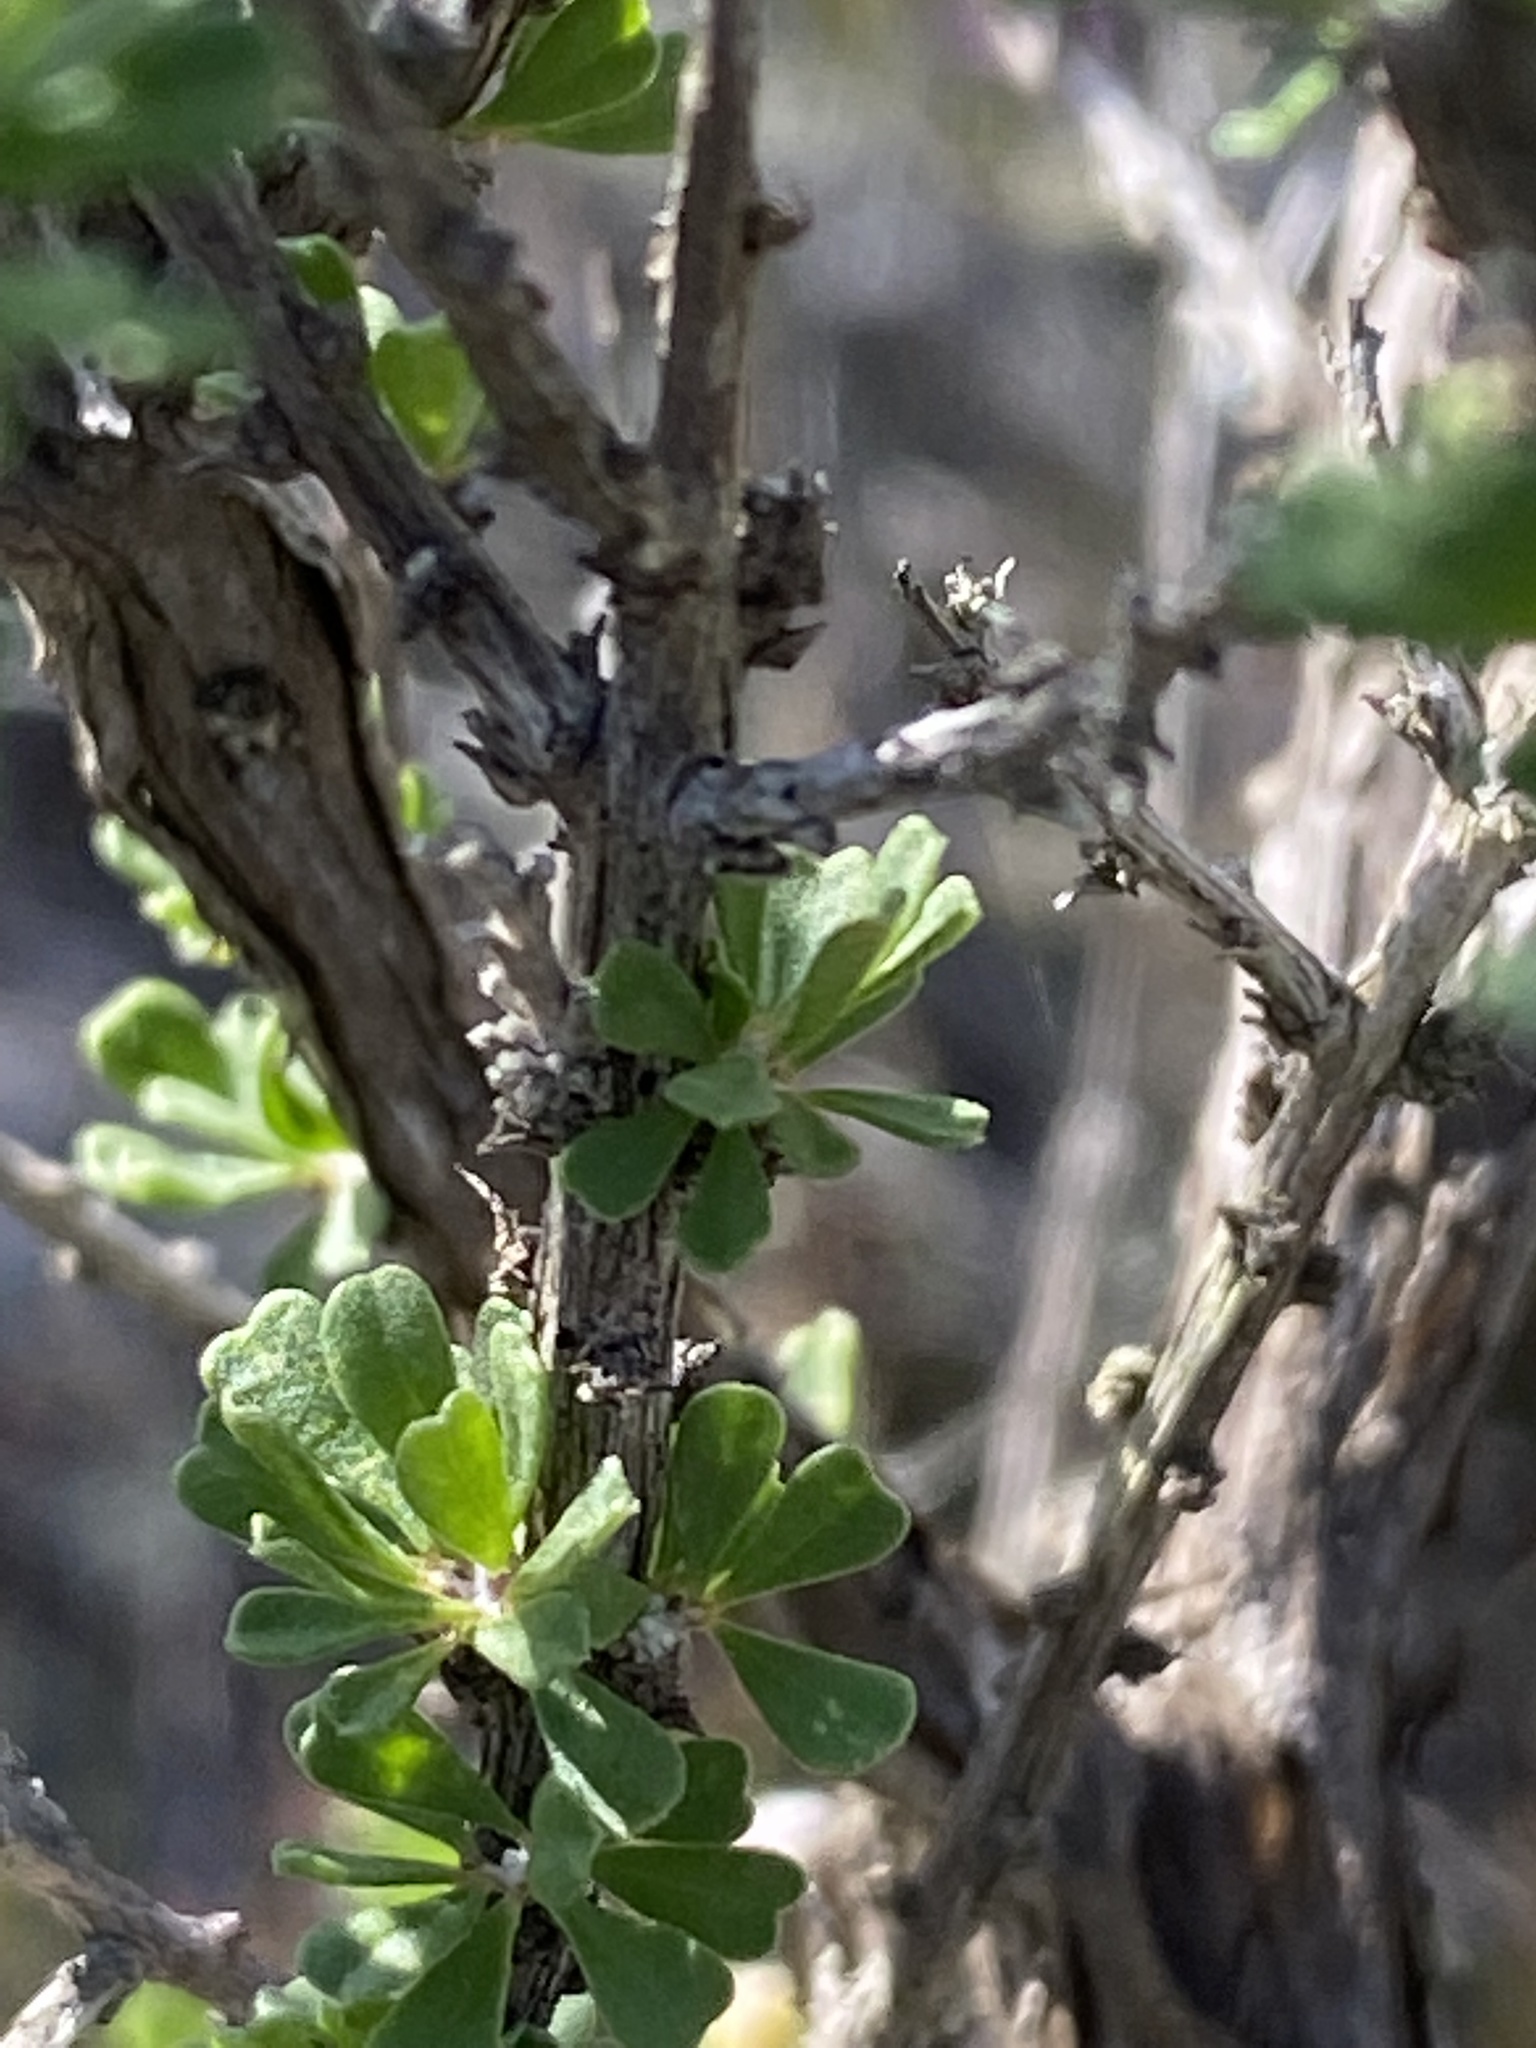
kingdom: Plantae
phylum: Tracheophyta
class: Magnoliopsida
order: Fabales
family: Fabaceae
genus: Wiborgiella
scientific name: Wiborgiella sessilifolia
